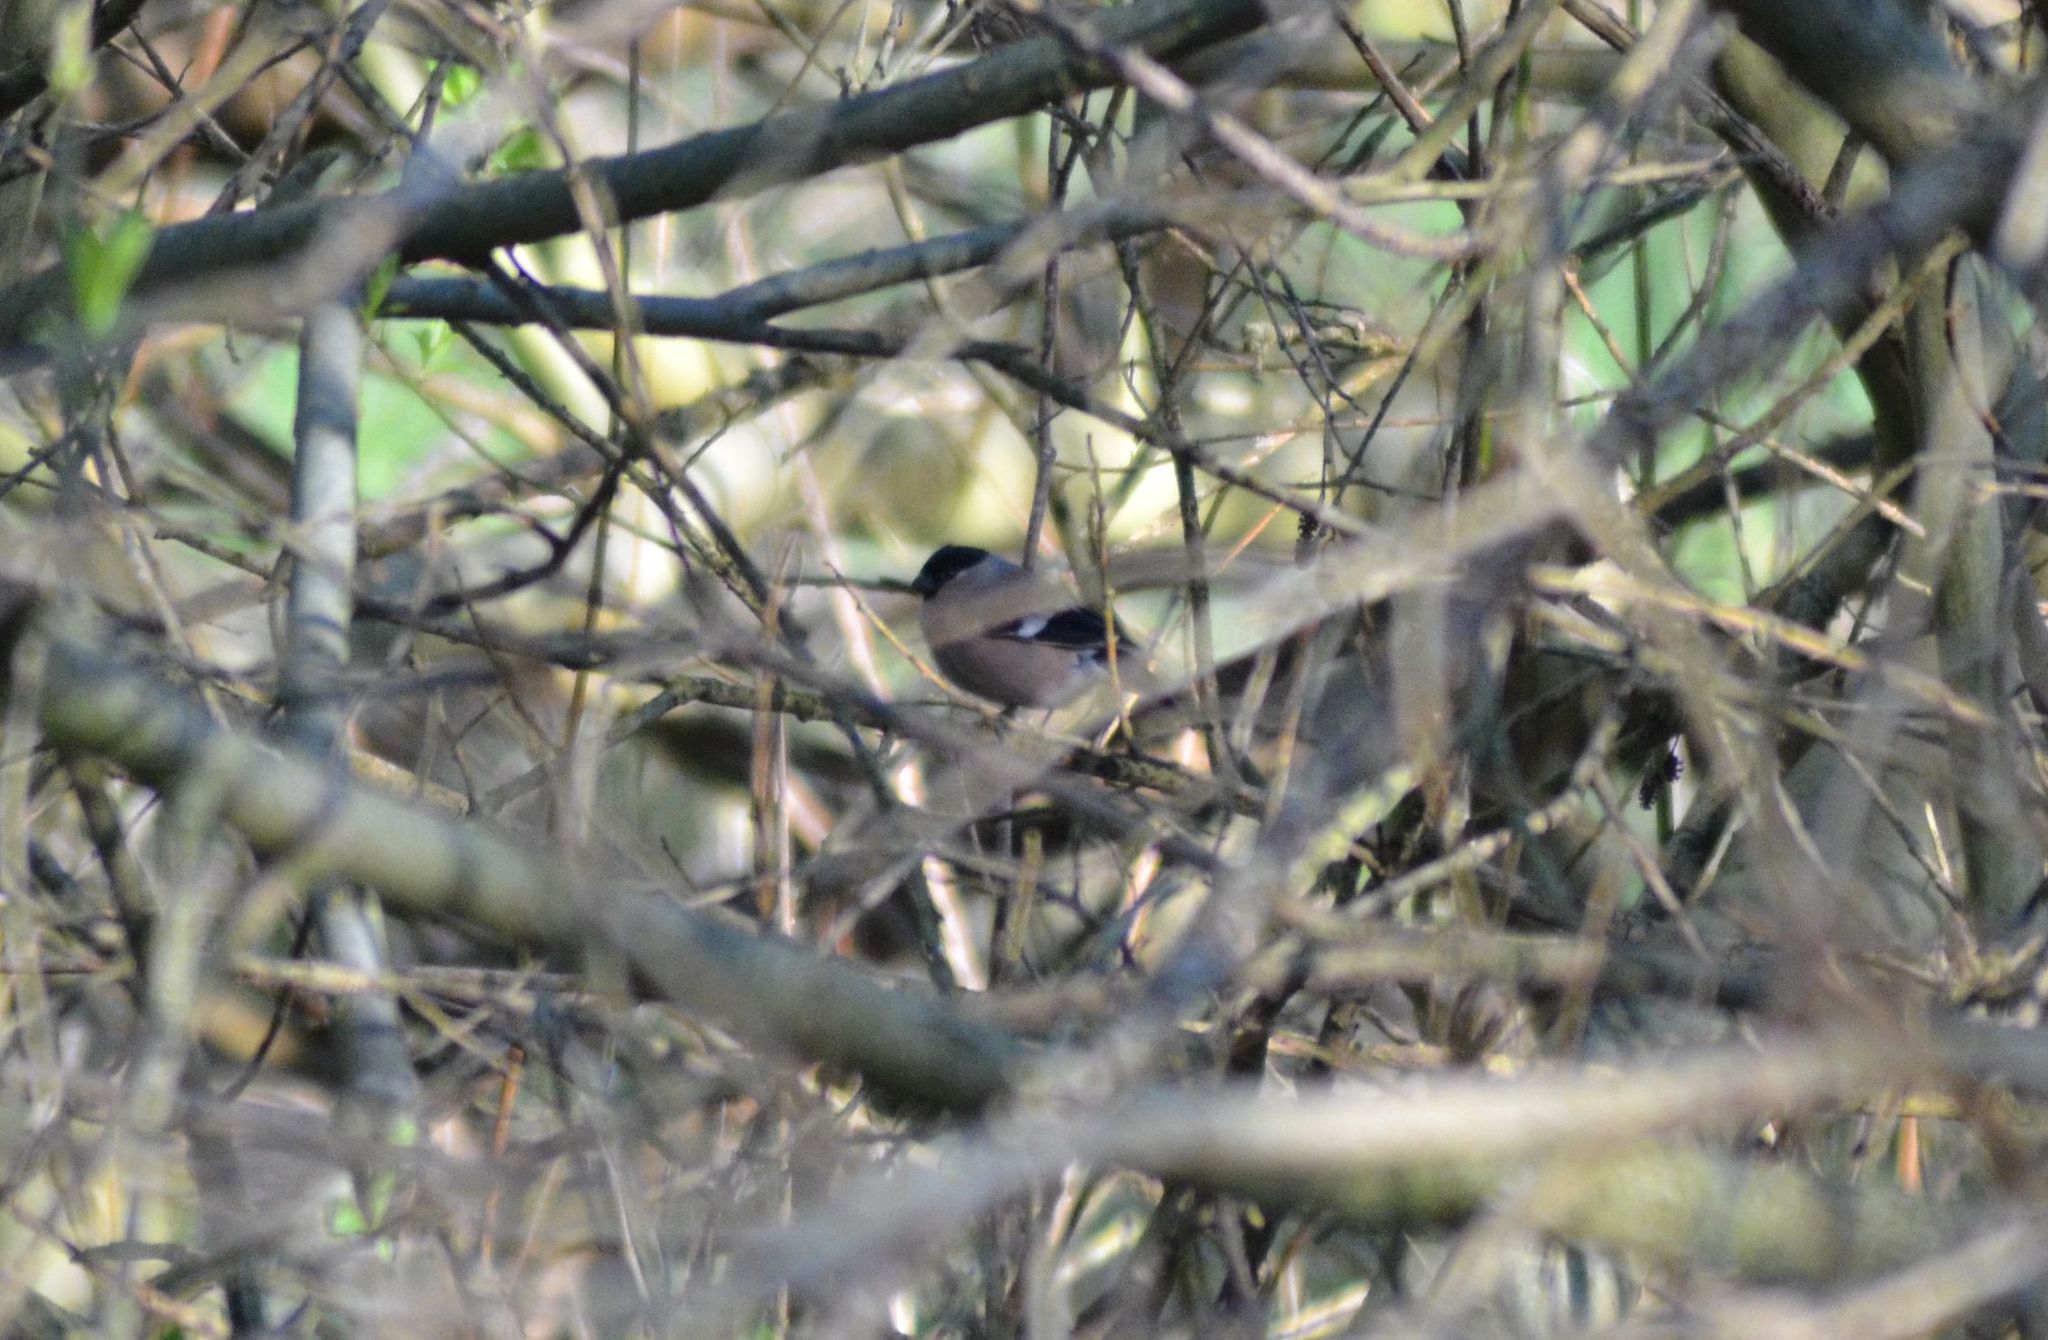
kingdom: Animalia
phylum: Chordata
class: Aves
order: Passeriformes
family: Fringillidae
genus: Pyrrhula
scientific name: Pyrrhula pyrrhula
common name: Eurasian bullfinch
